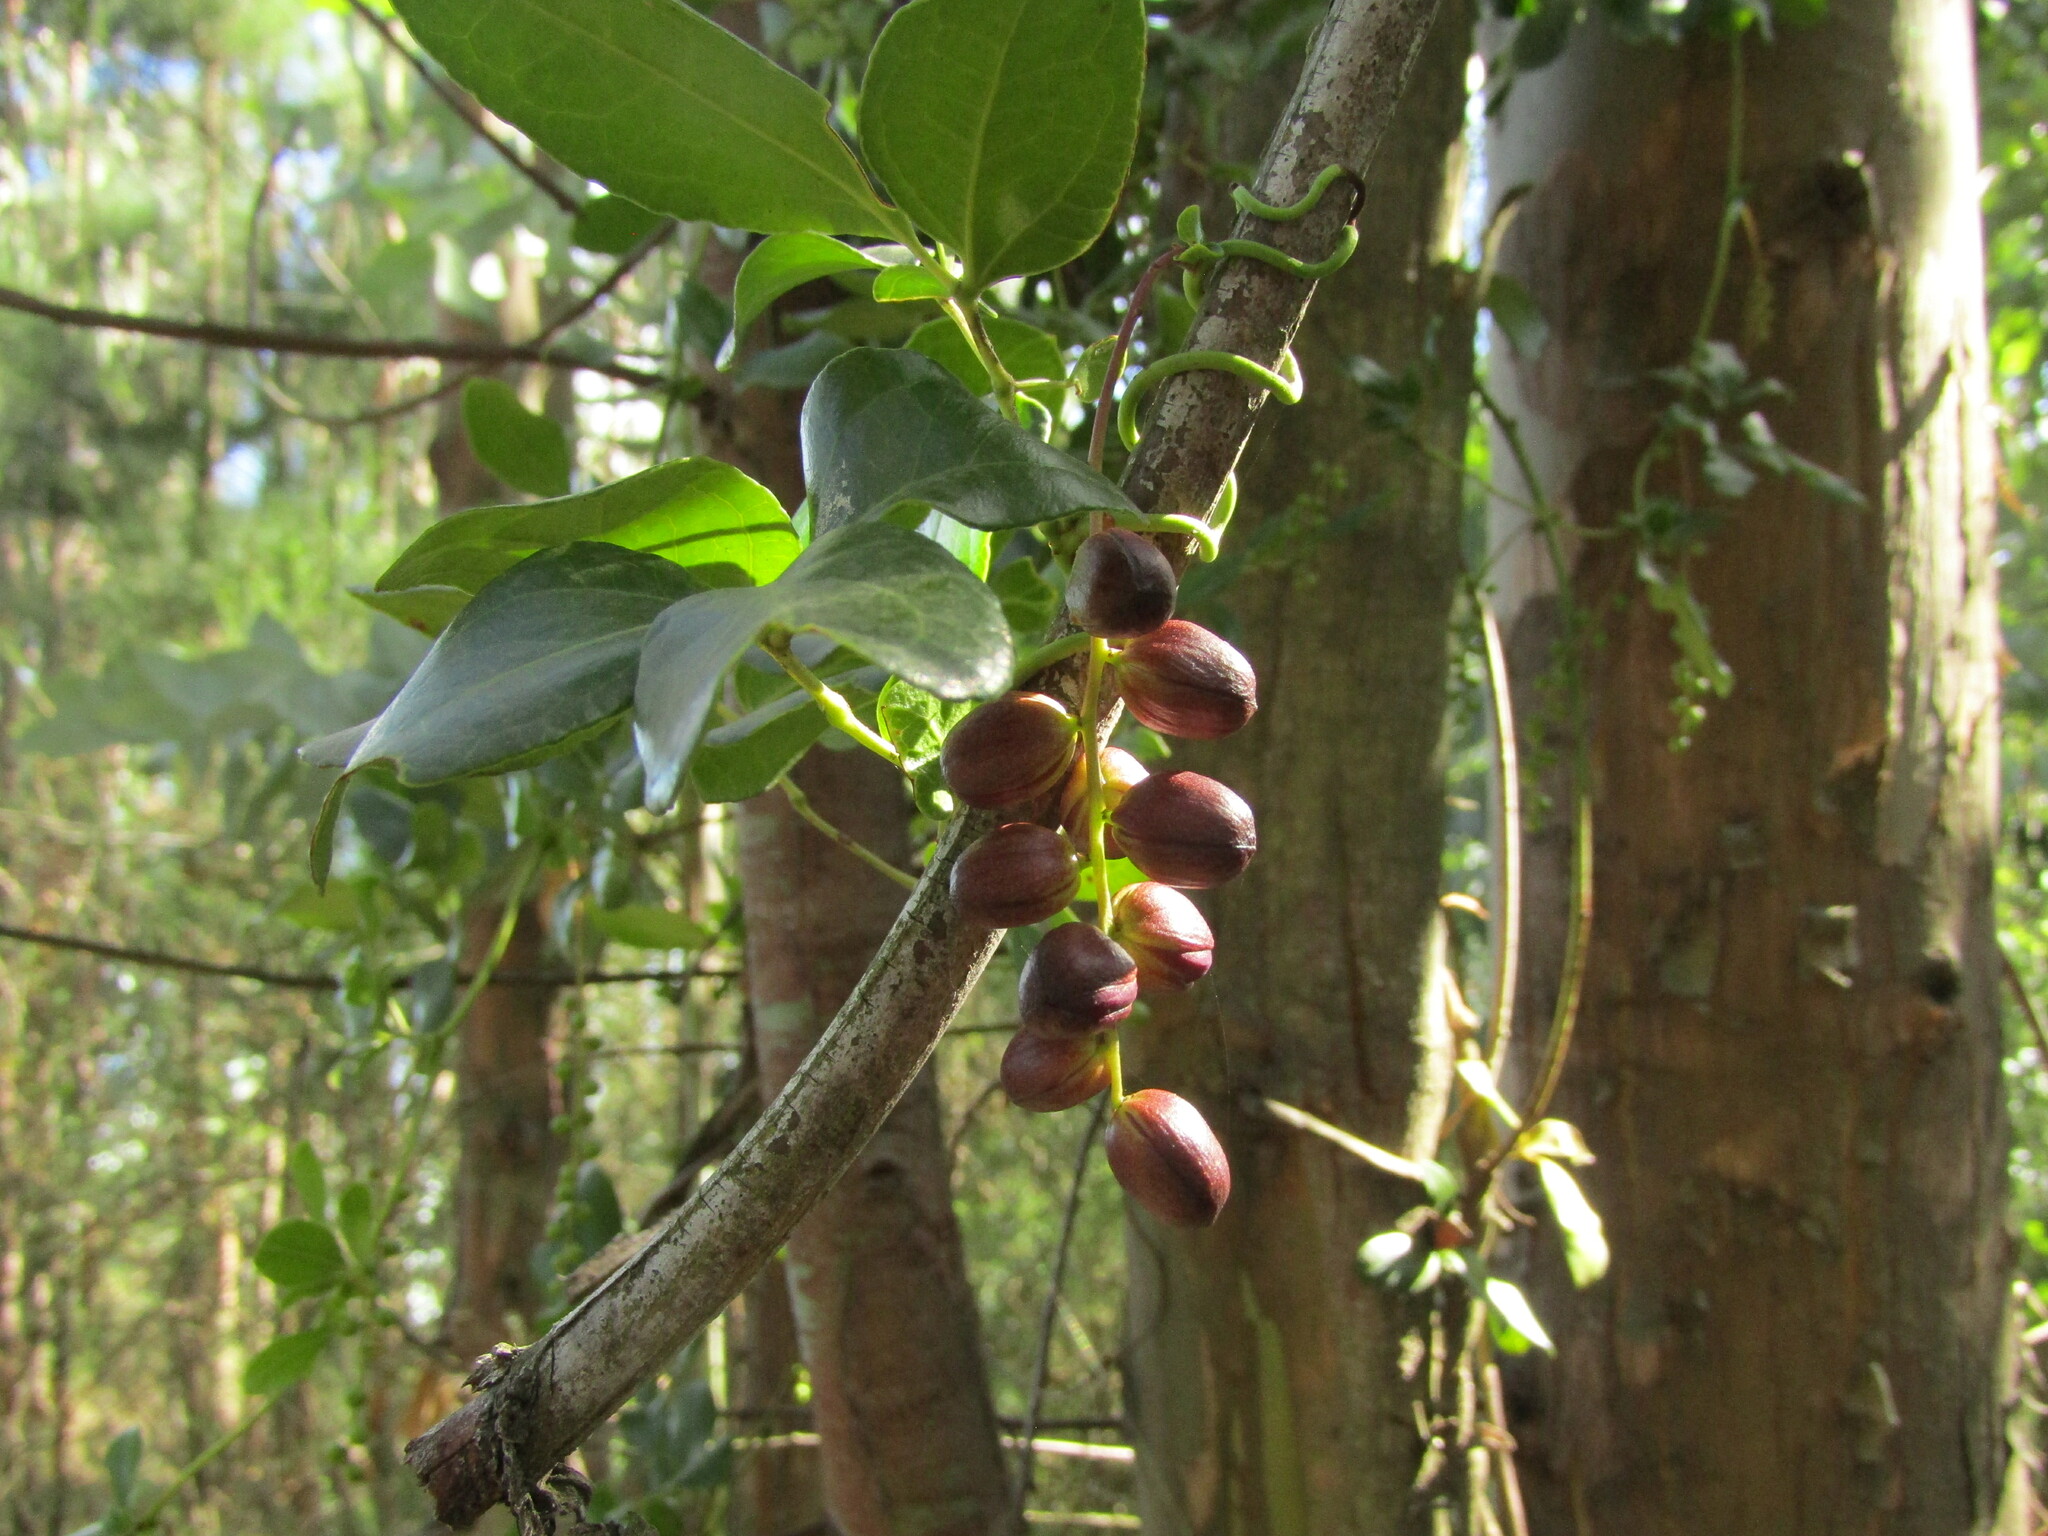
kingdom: Plantae
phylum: Tracheophyta
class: Magnoliopsida
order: Ranunculales
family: Lardizabalaceae
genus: Lardizabala
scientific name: Lardizabala funaria
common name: Zabala
